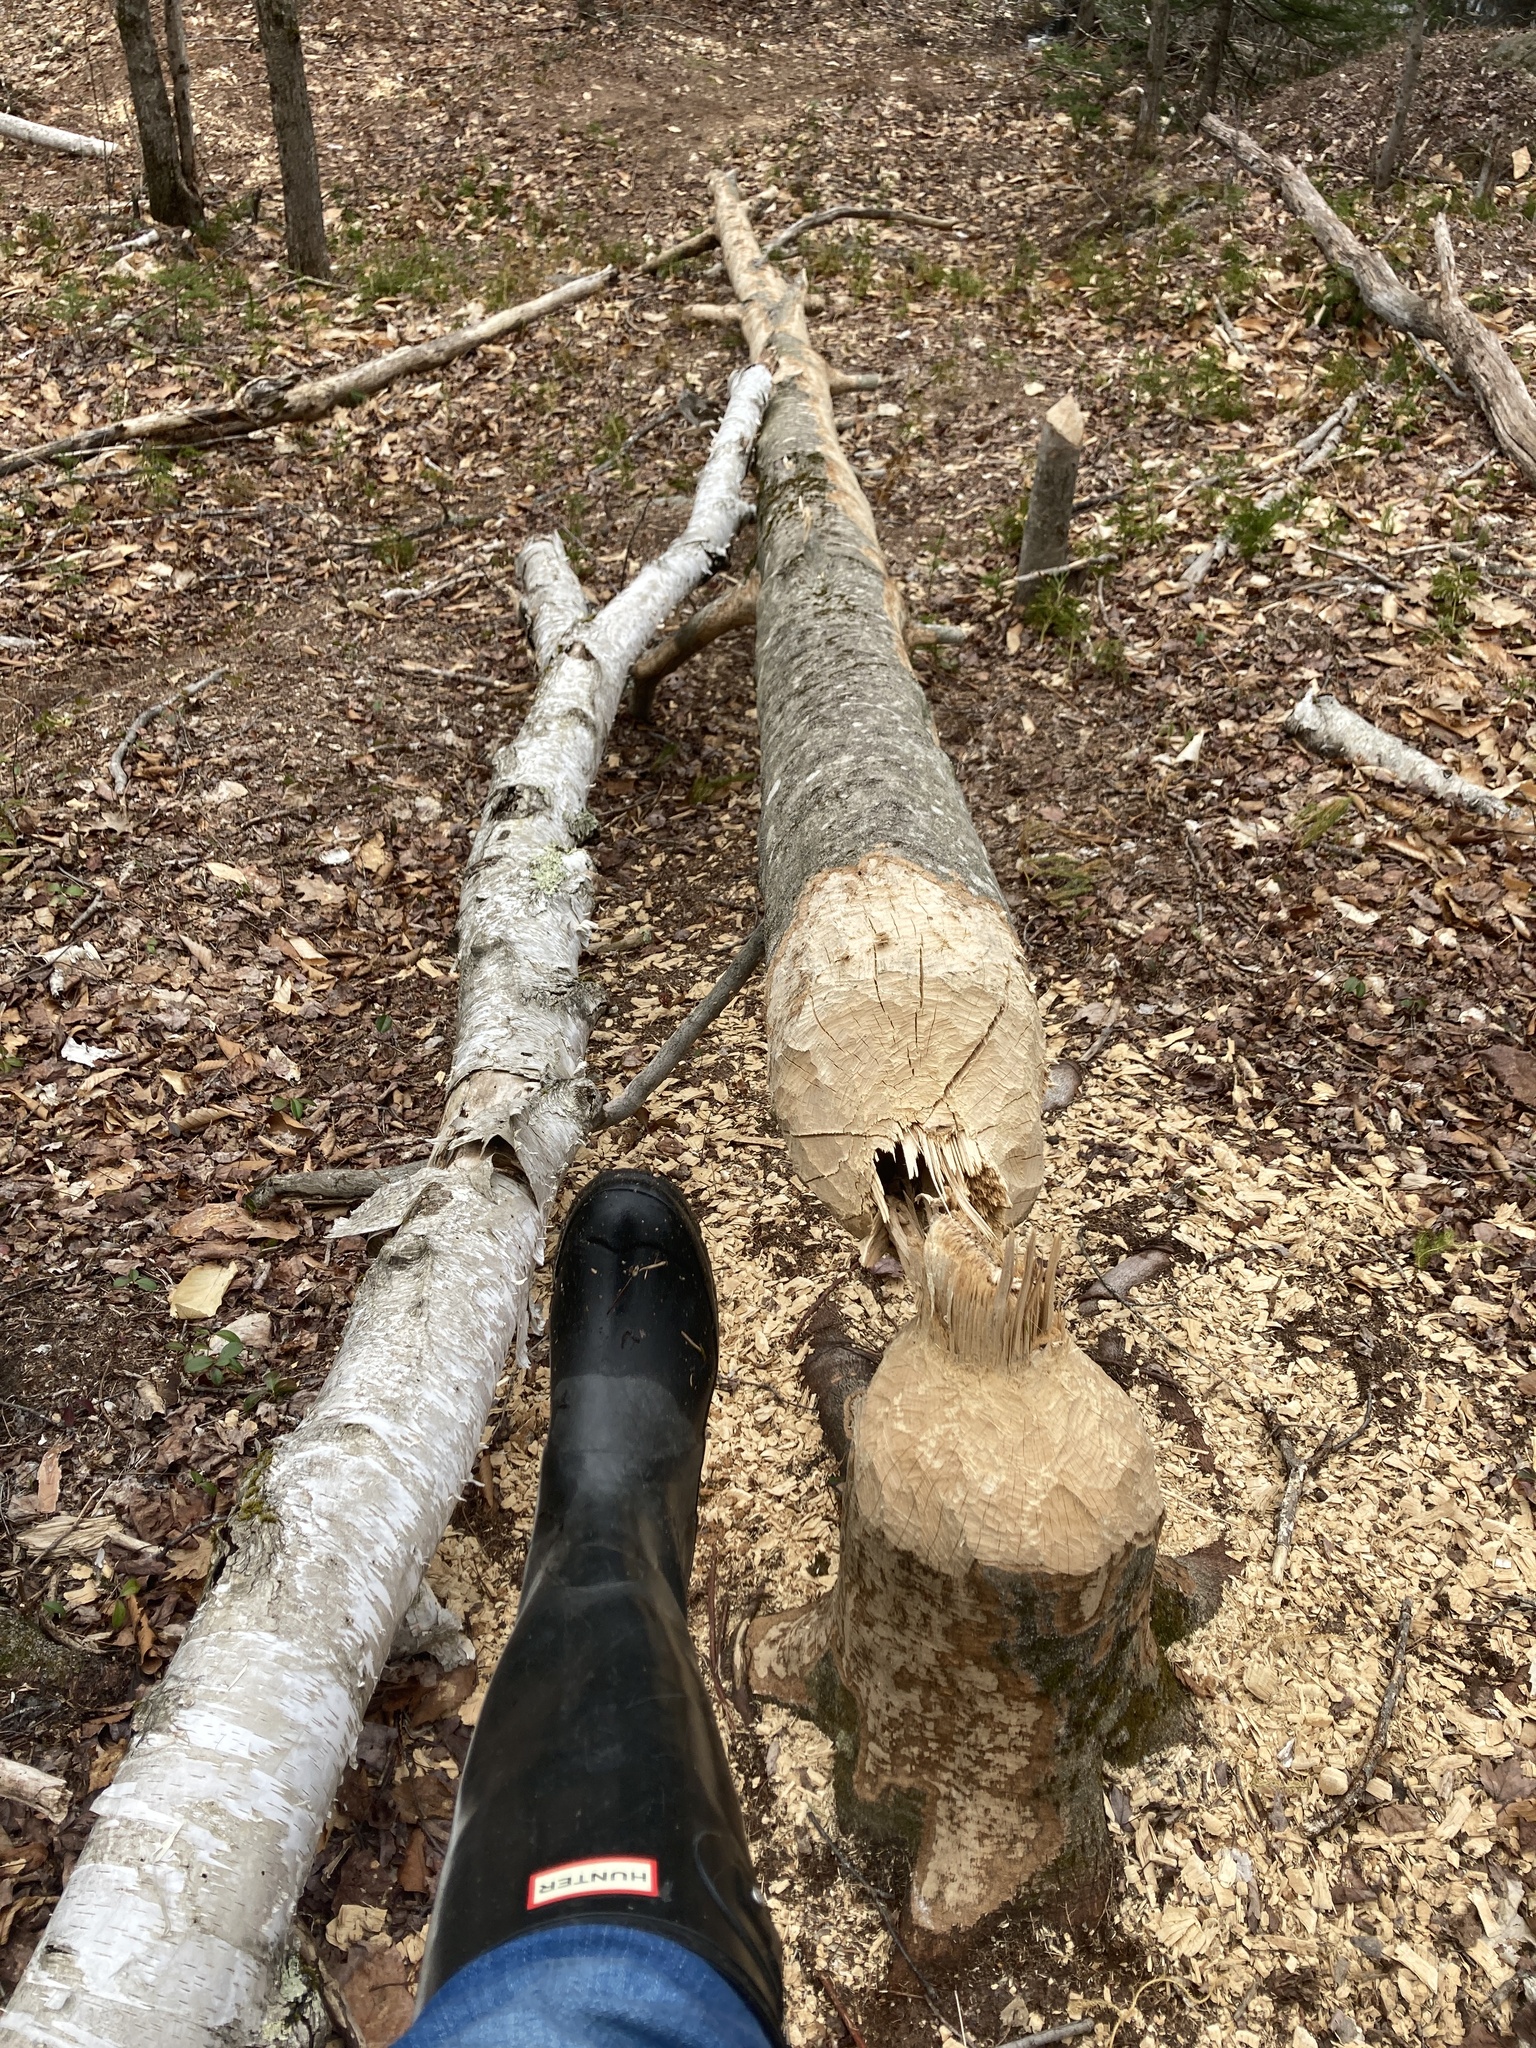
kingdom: Animalia
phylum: Chordata
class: Mammalia
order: Rodentia
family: Castoridae
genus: Castor
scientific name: Castor canadensis
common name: American beaver
